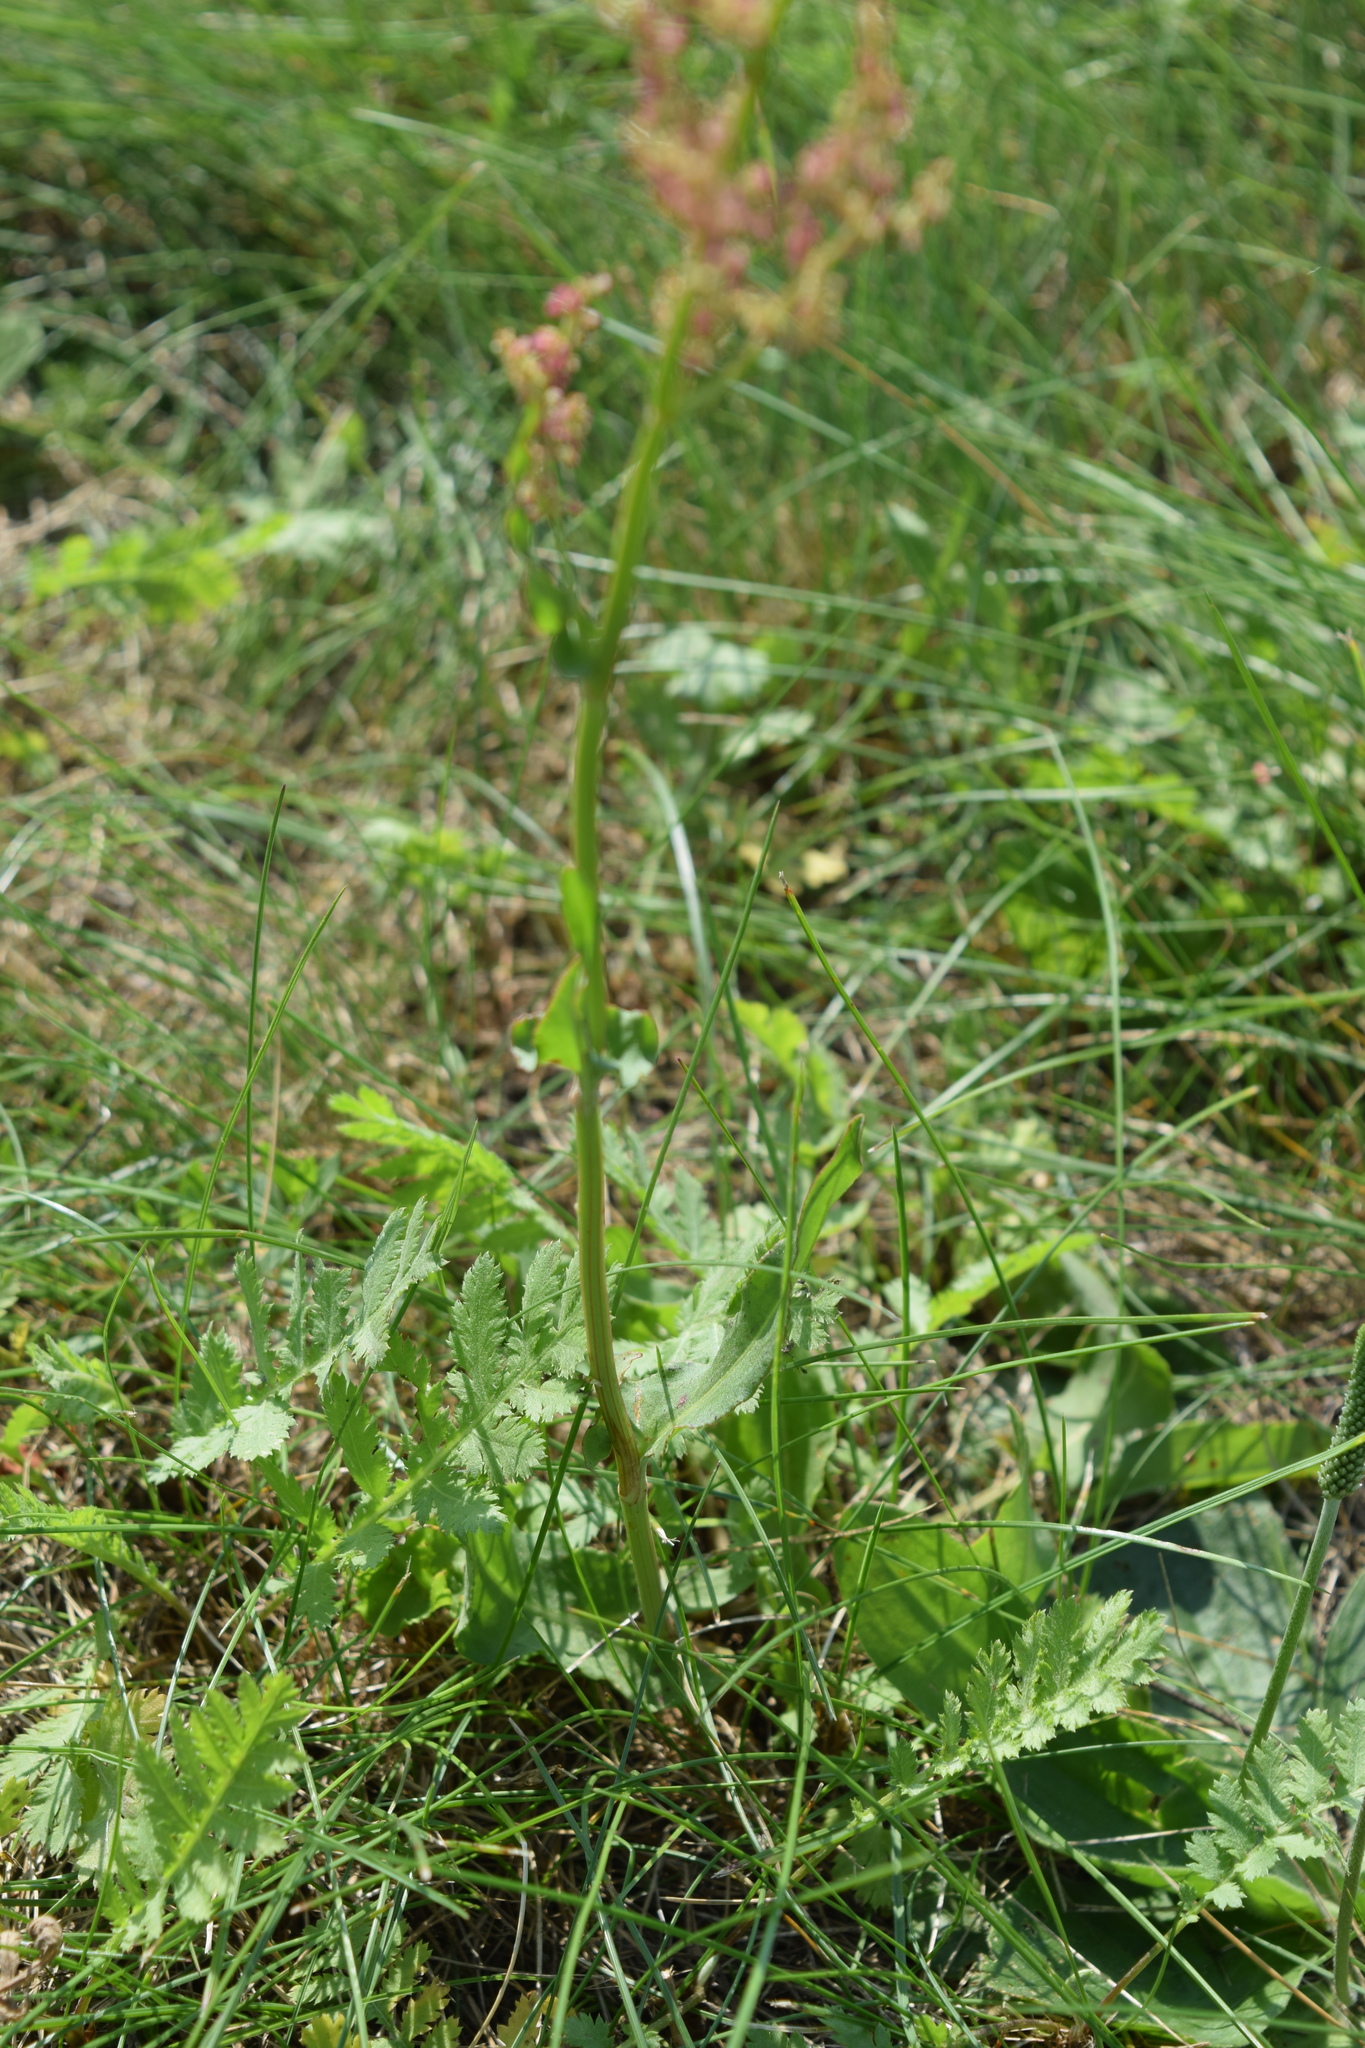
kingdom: Plantae
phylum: Tracheophyta
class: Magnoliopsida
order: Caryophyllales
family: Polygonaceae
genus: Rumex
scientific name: Rumex thyrsiflorus
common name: Garden sorrel
